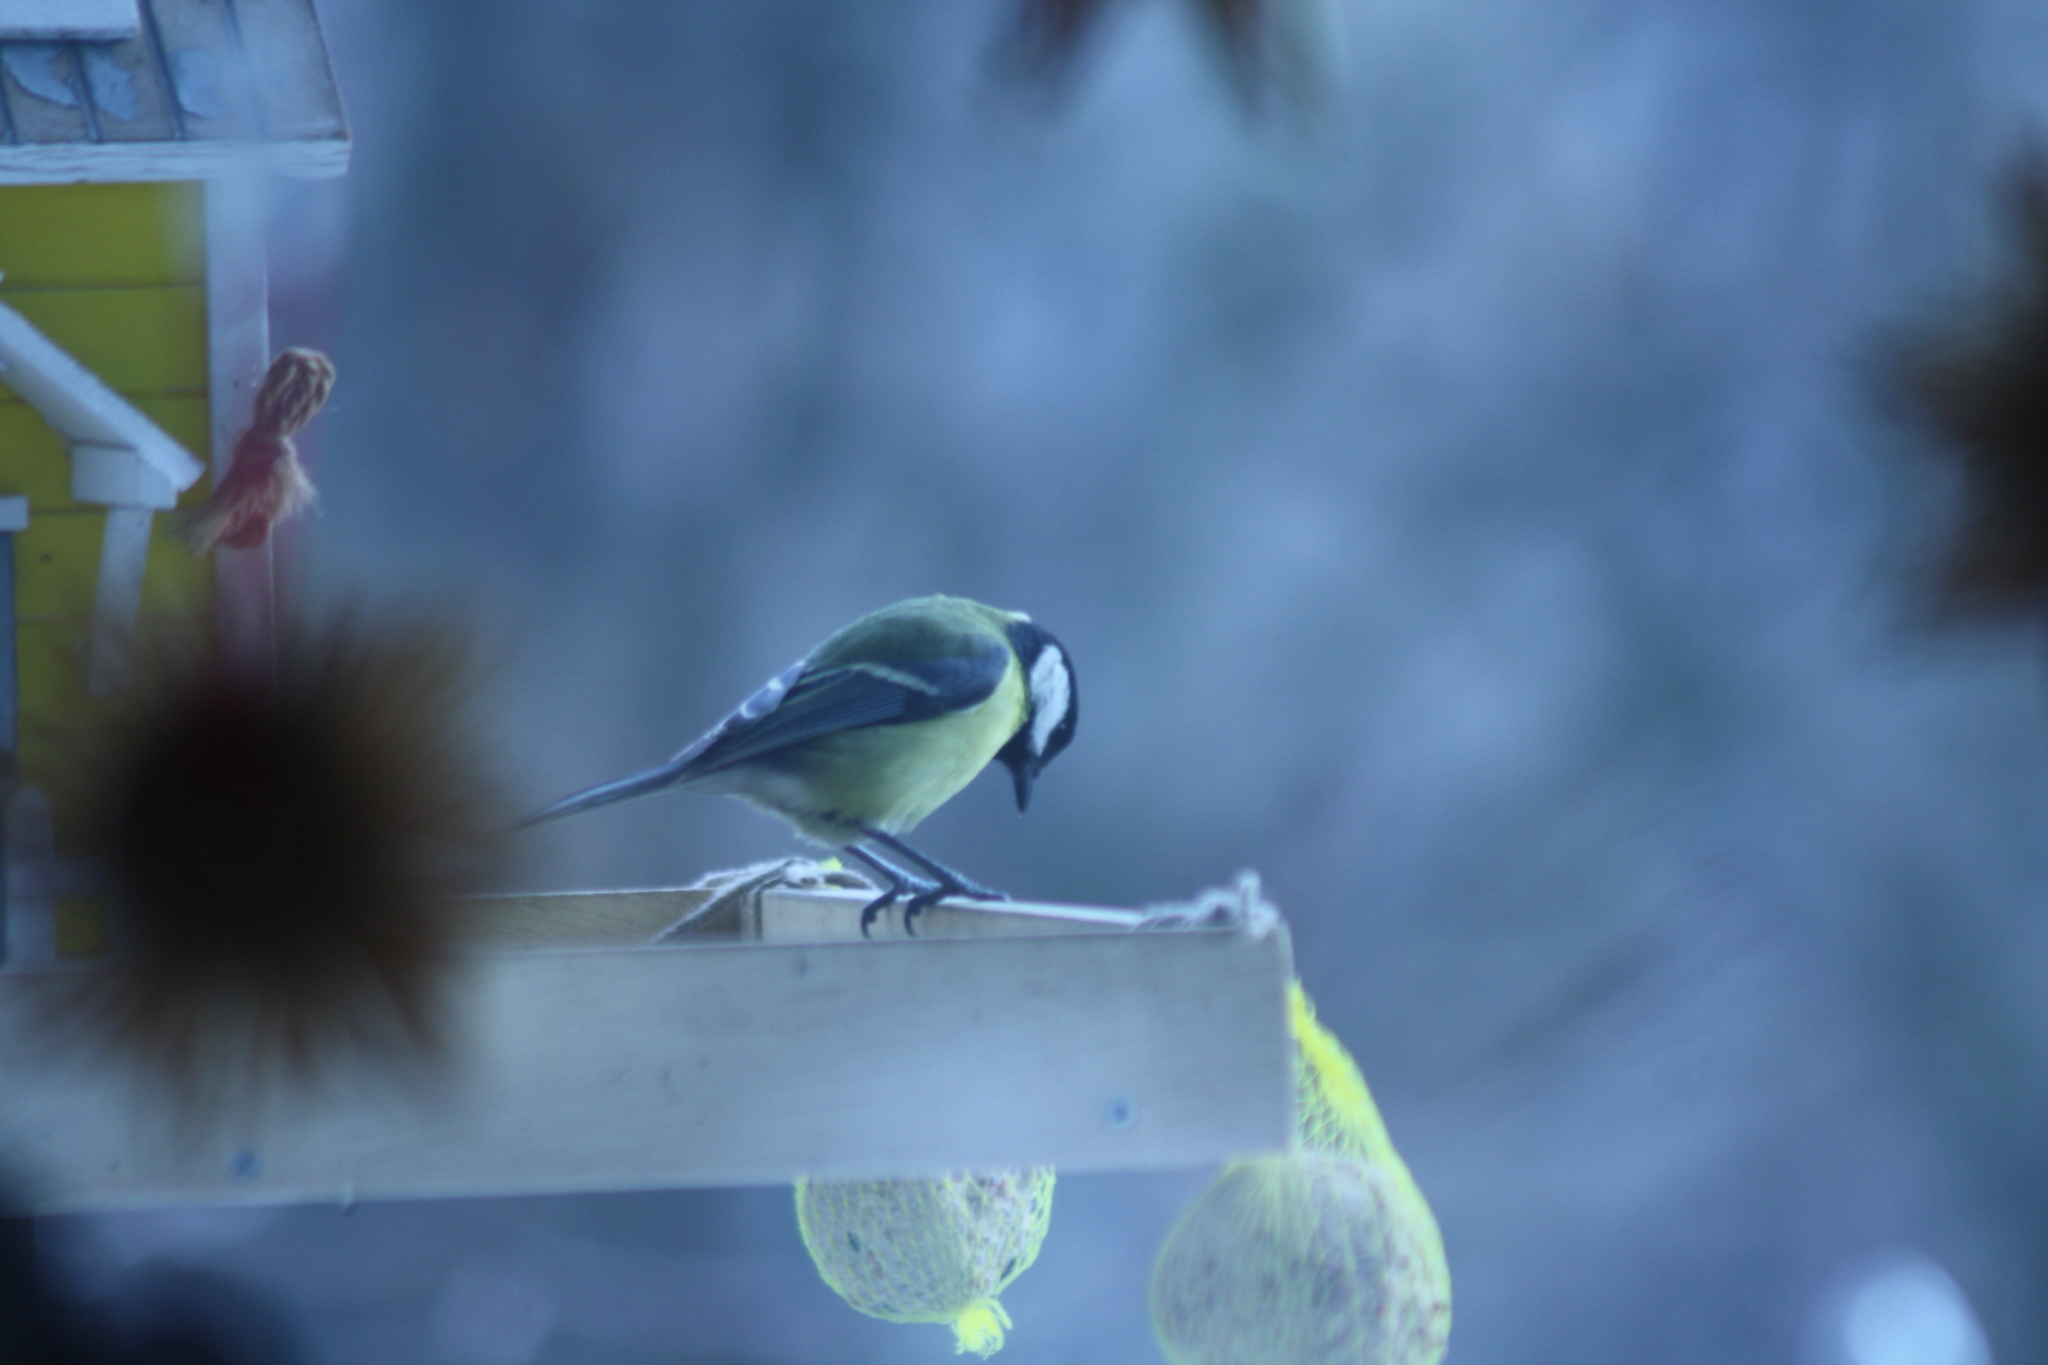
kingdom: Animalia
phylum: Chordata
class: Aves
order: Passeriformes
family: Paridae
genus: Parus
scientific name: Parus major
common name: Great tit
